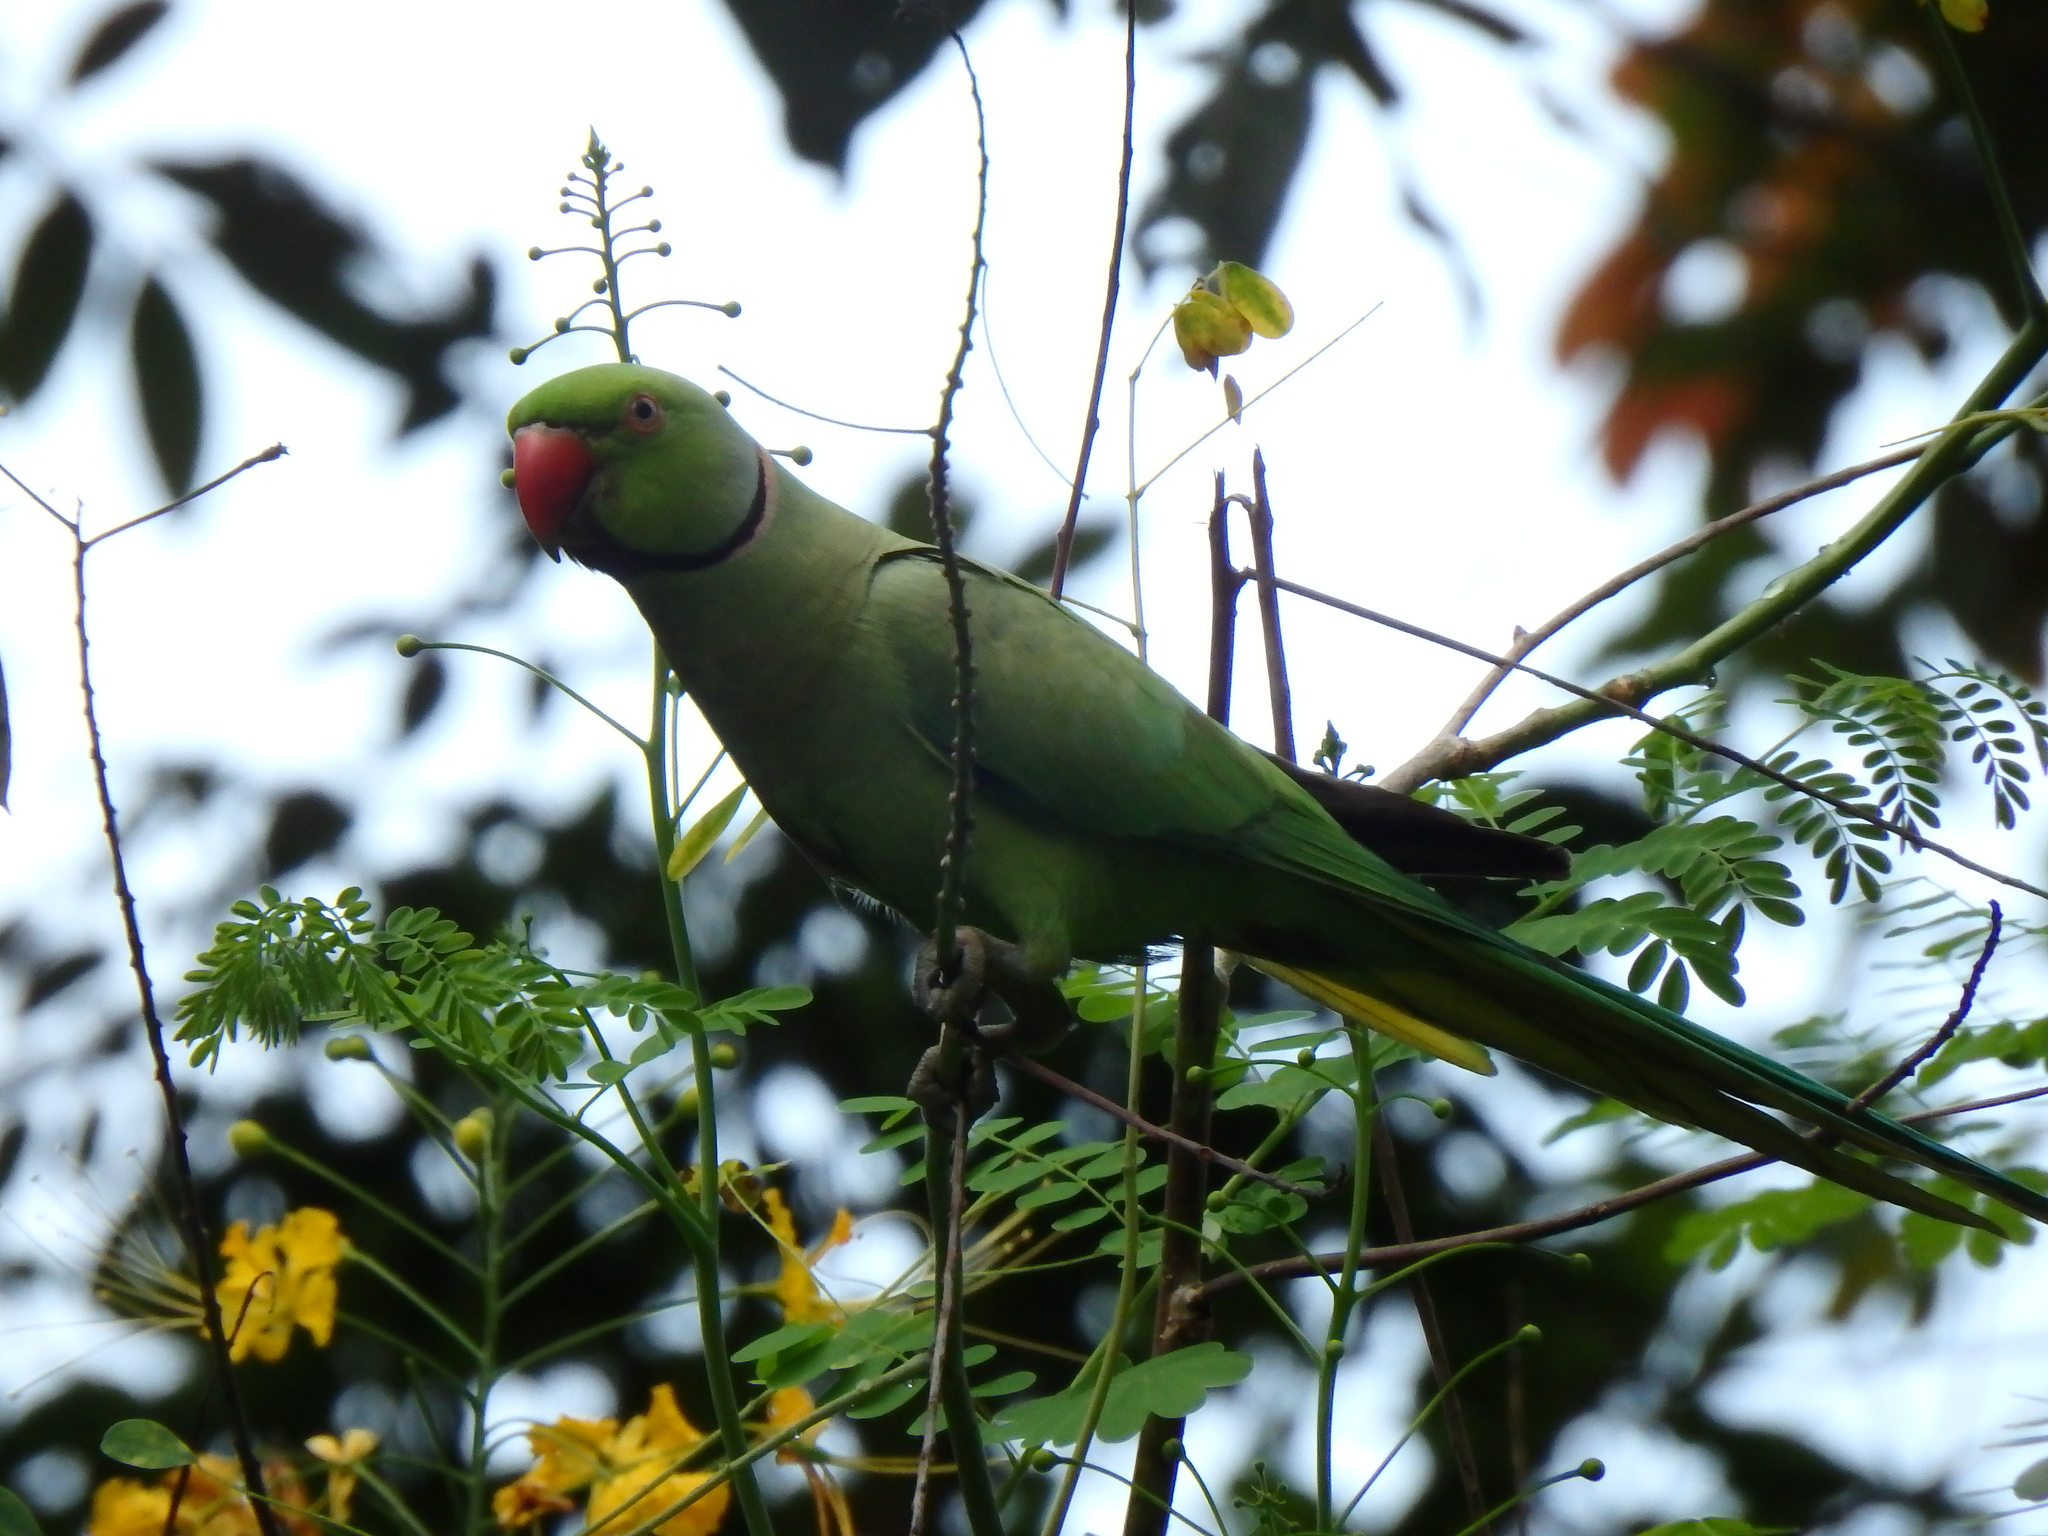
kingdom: Animalia
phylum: Chordata
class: Aves
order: Psittaciformes
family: Psittacidae
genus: Psittacula
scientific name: Psittacula krameri
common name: Rose-ringed parakeet
